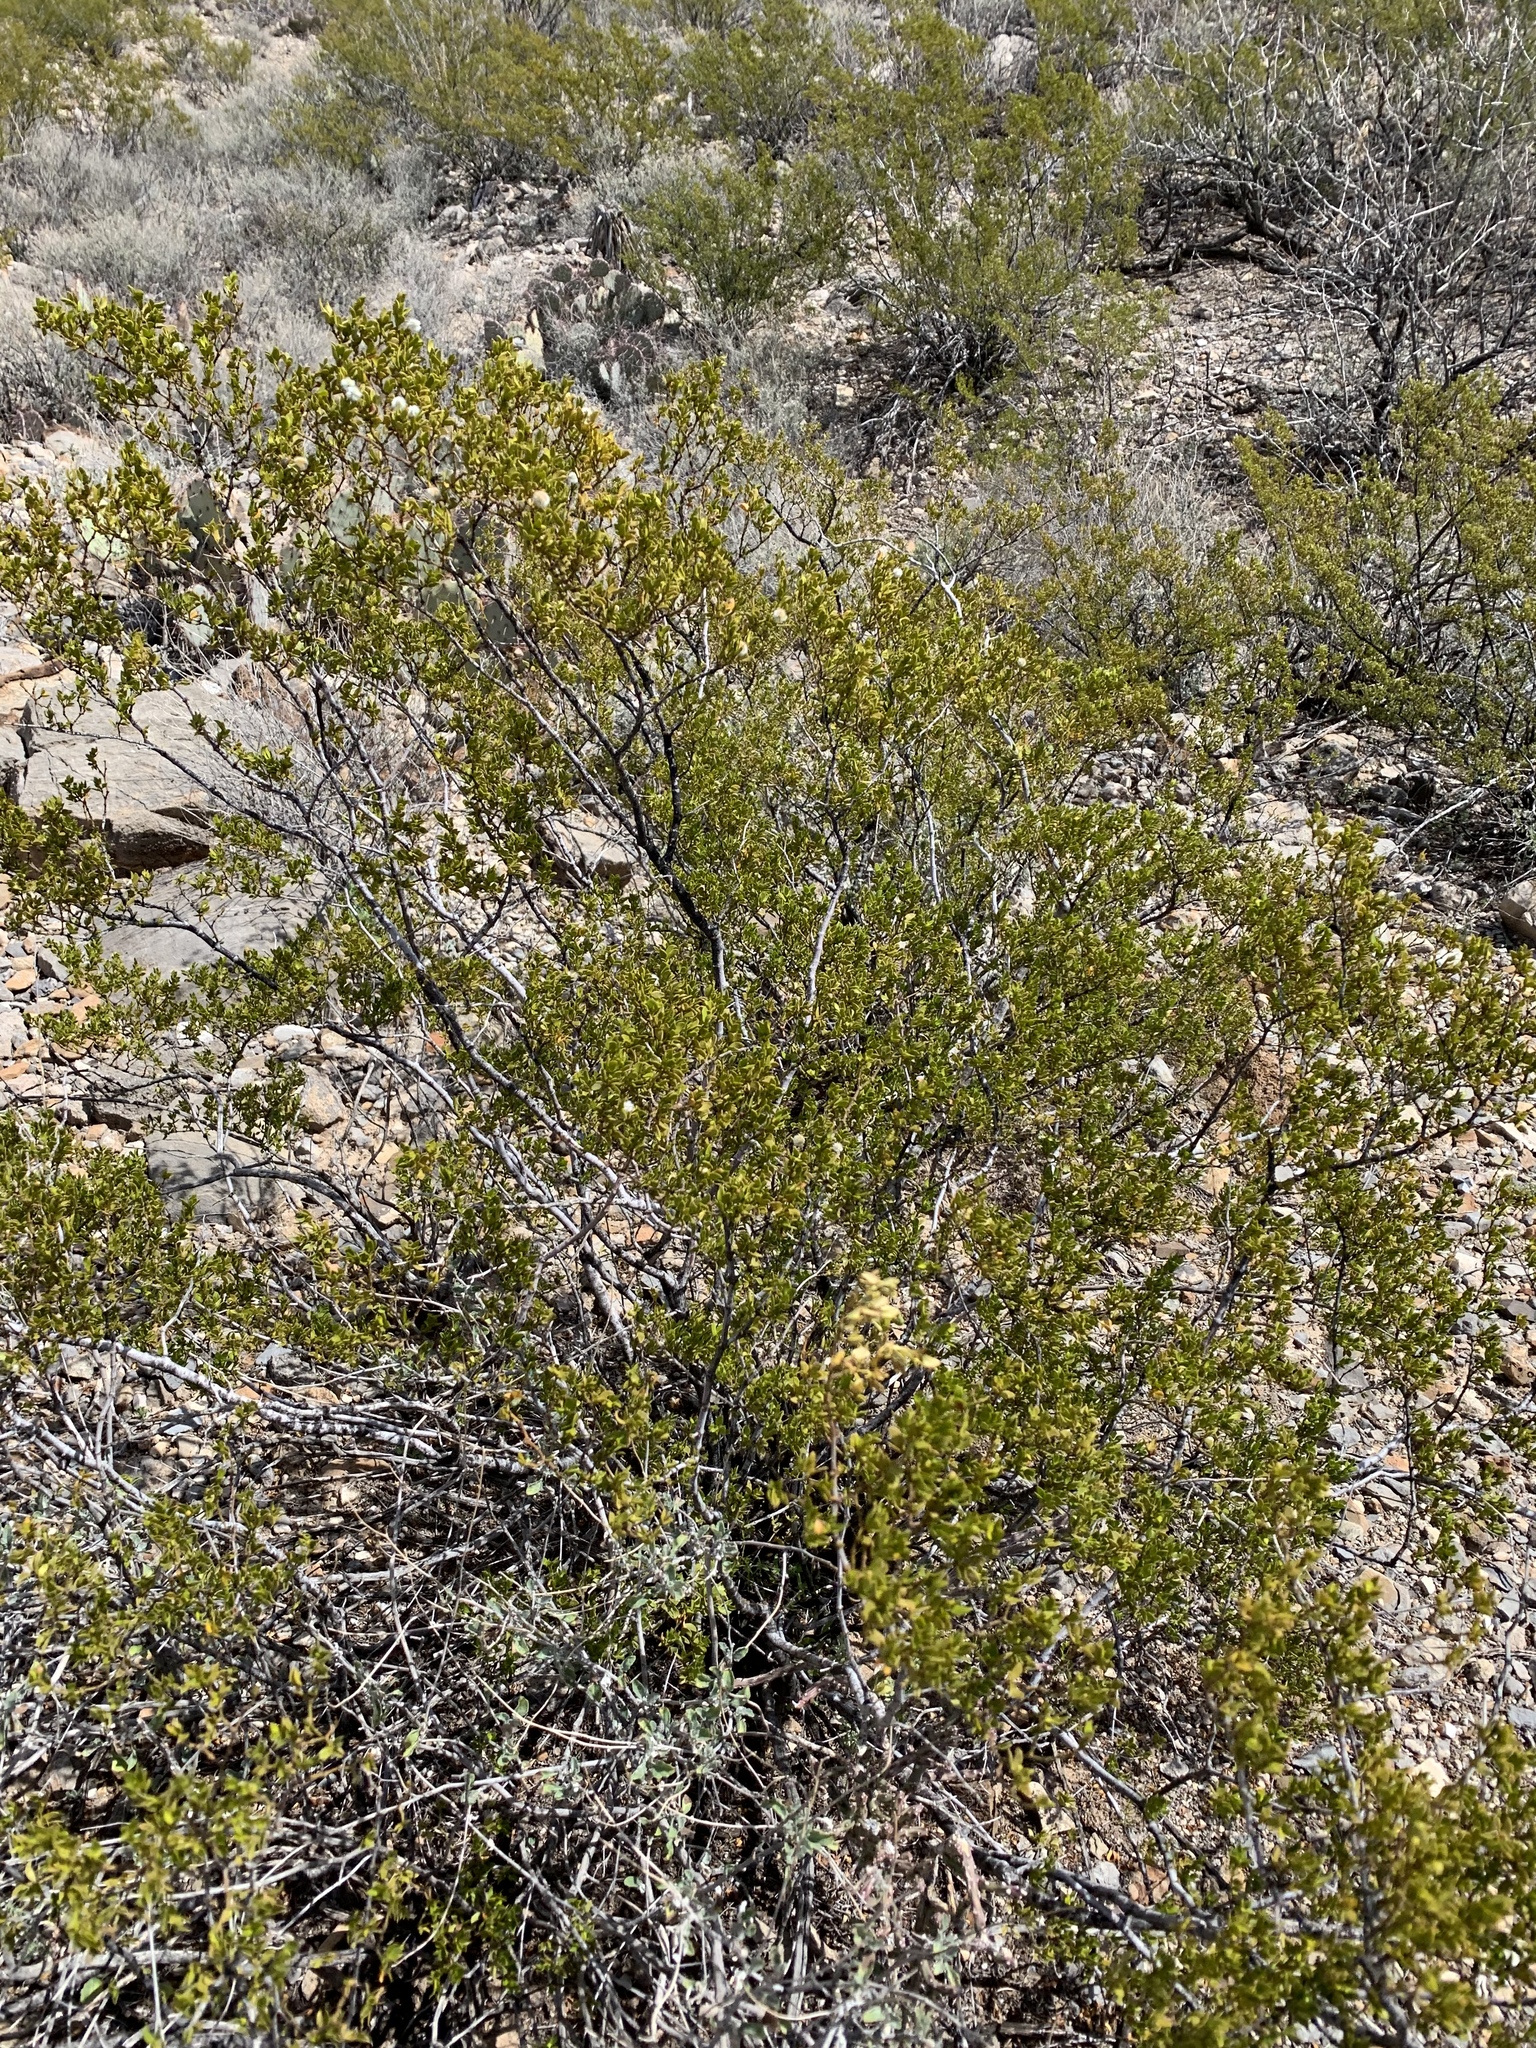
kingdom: Plantae
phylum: Tracheophyta
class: Magnoliopsida
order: Zygophyllales
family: Zygophyllaceae
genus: Larrea
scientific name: Larrea tridentata
